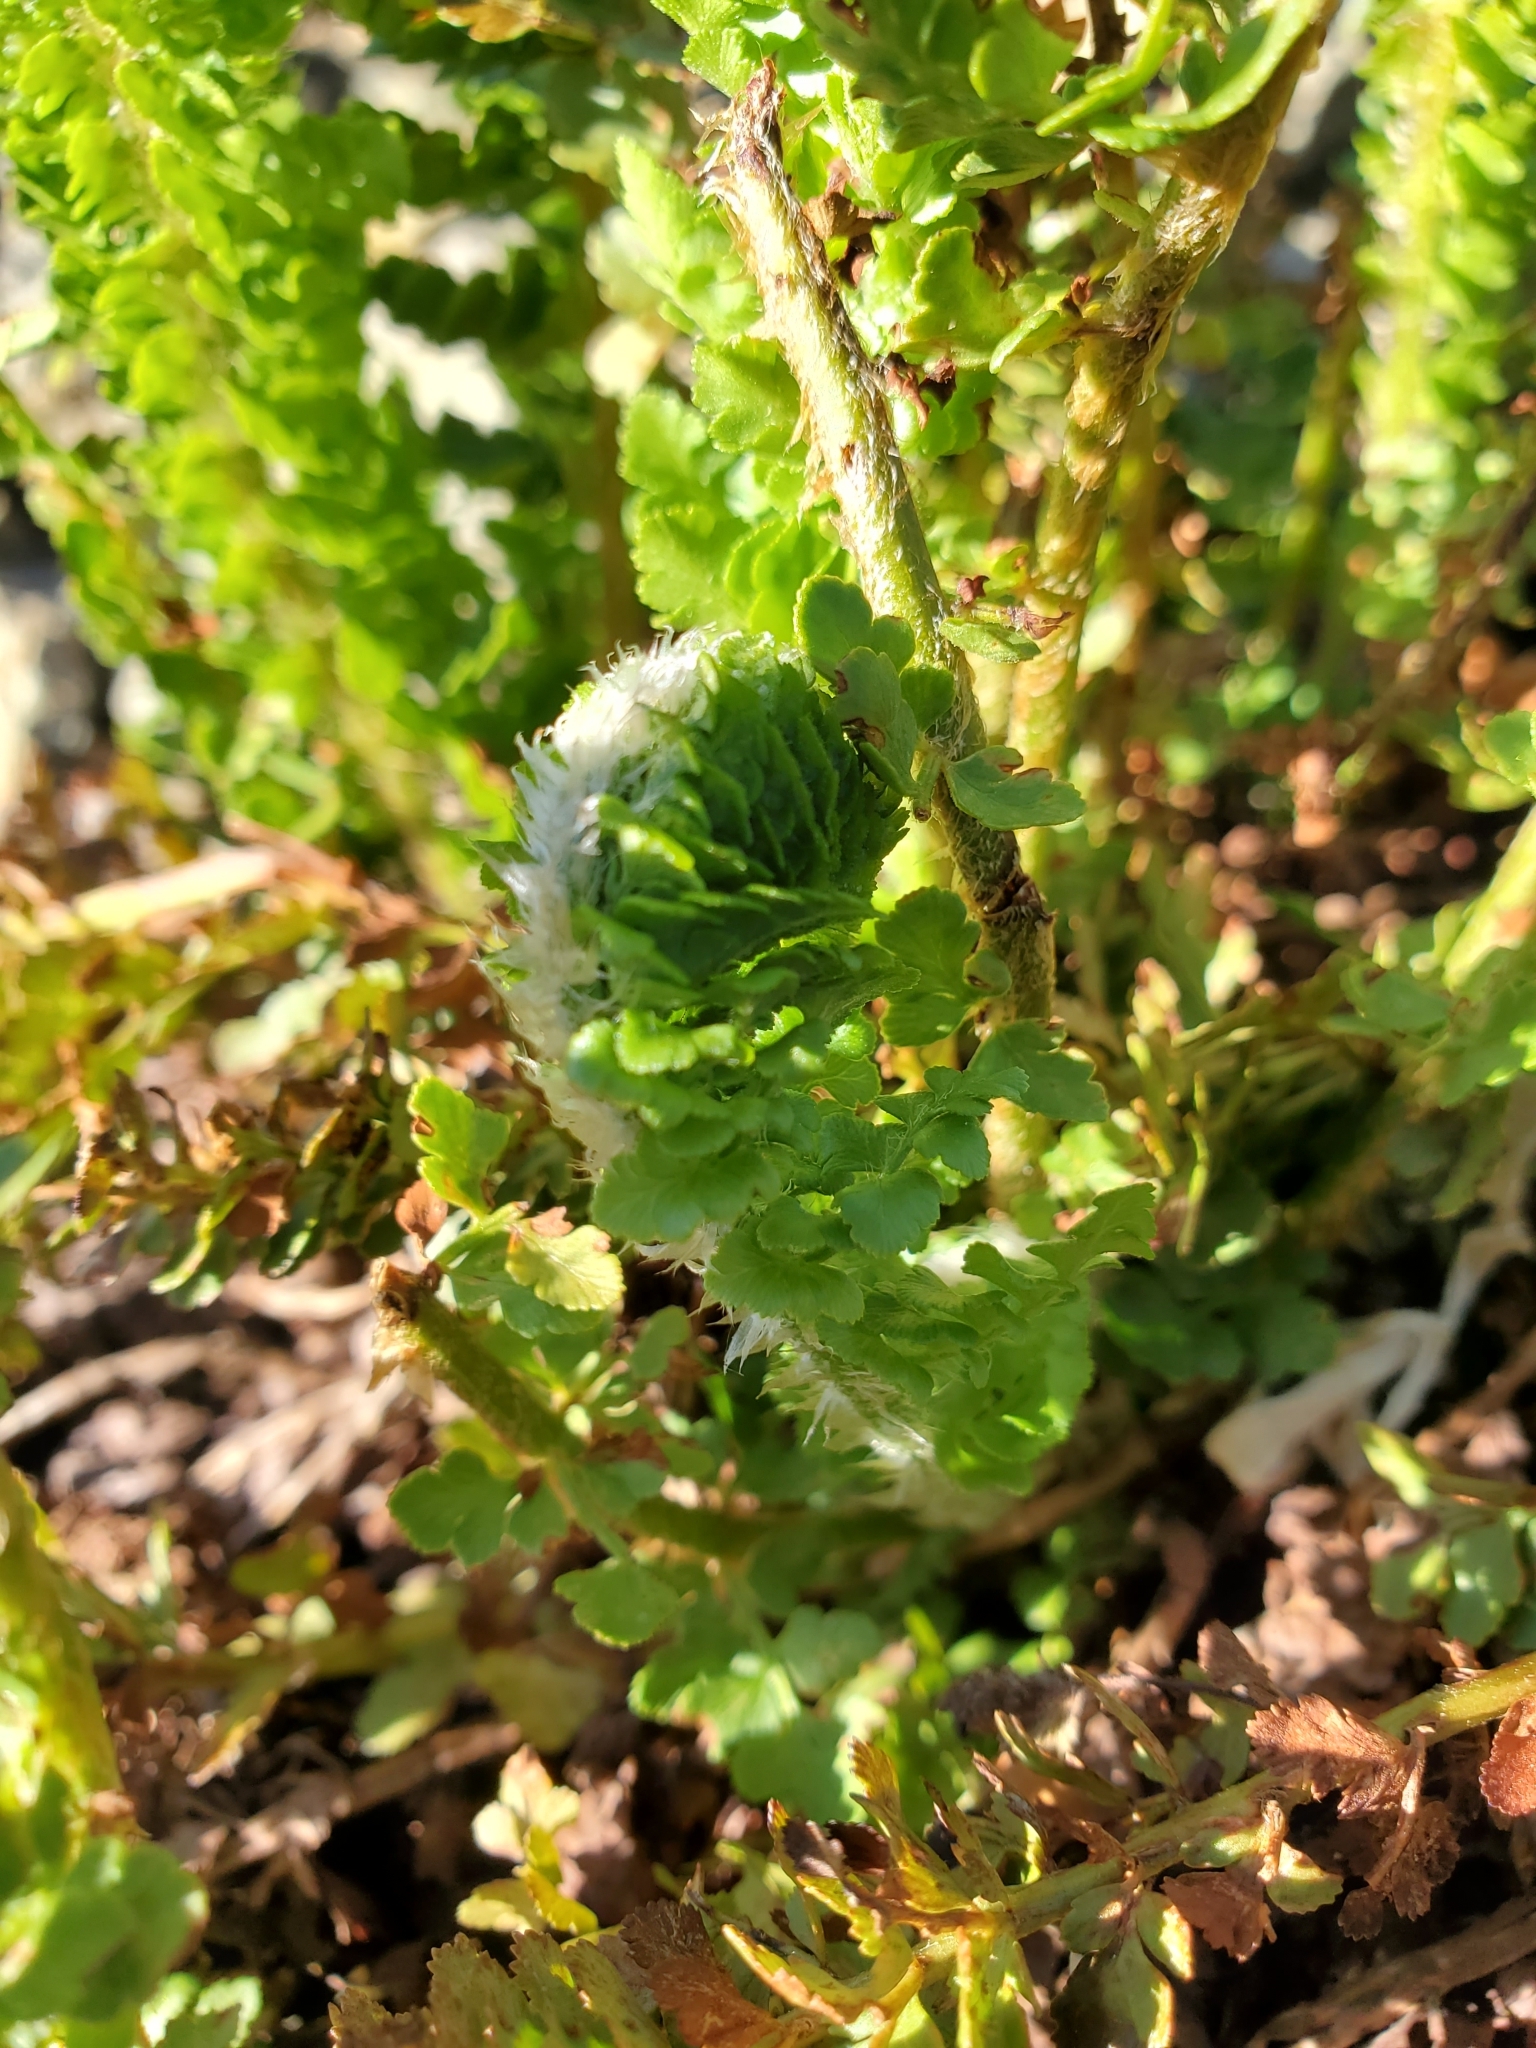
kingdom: Plantae
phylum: Tracheophyta
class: Polypodiopsida
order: Polypodiales
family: Dryopteridaceae
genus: Polystichum
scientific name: Polystichum lemmonii
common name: Lemmon's holly fern
